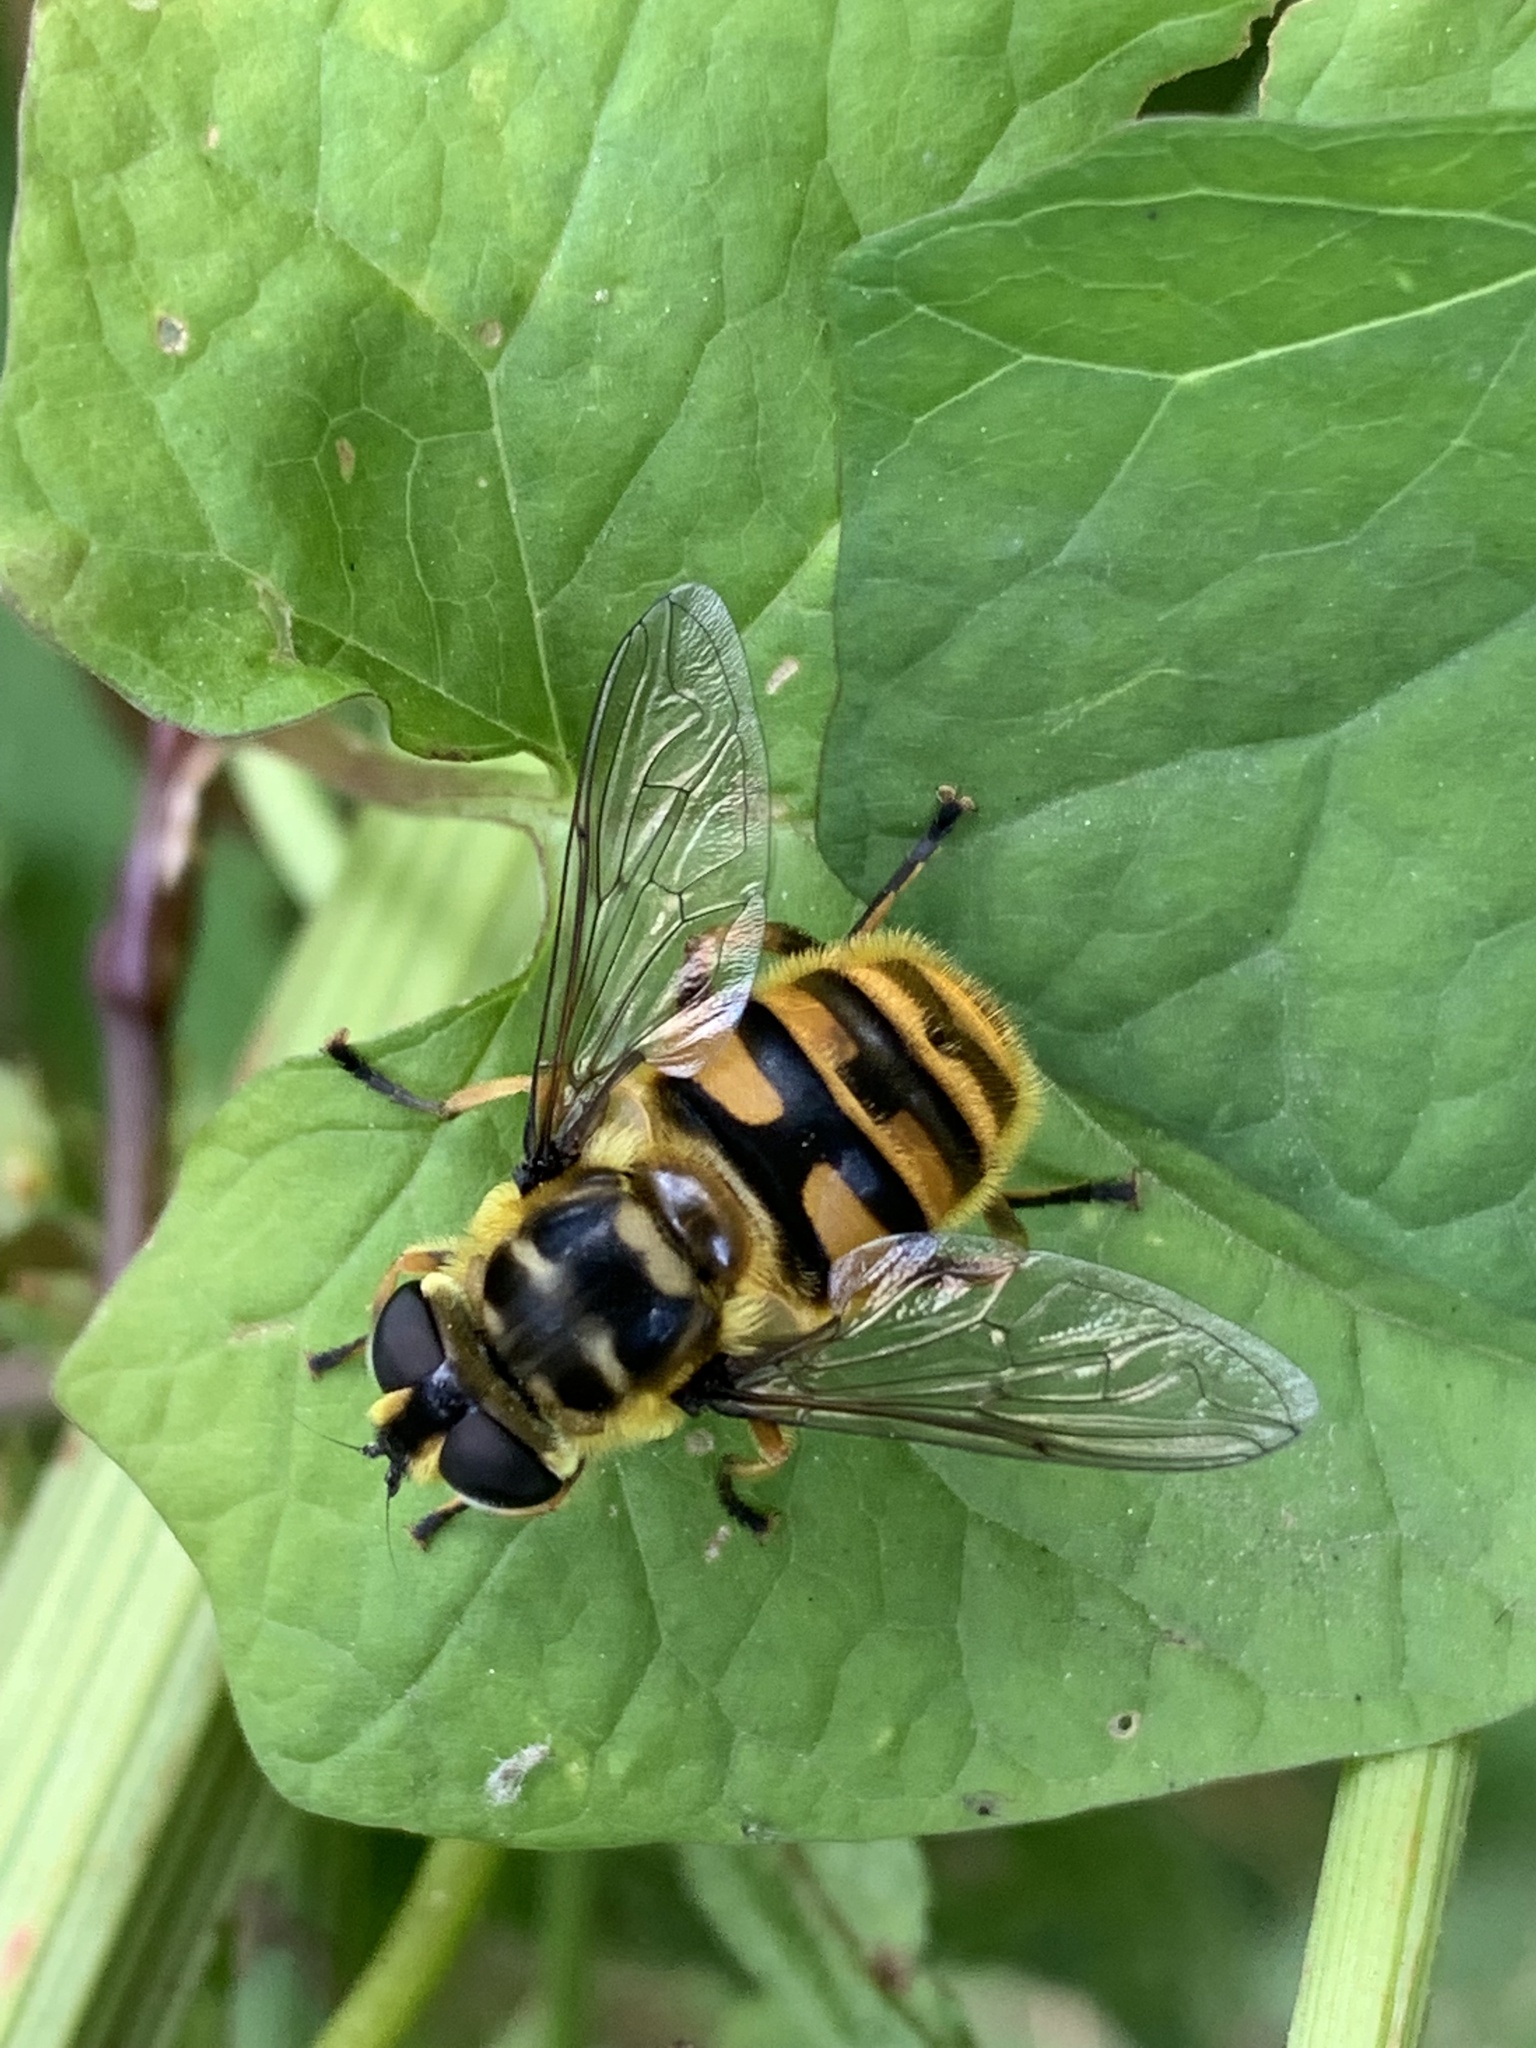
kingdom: Animalia
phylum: Arthropoda
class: Insecta
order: Diptera
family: Syrphidae
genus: Myathropa
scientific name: Myathropa florea
